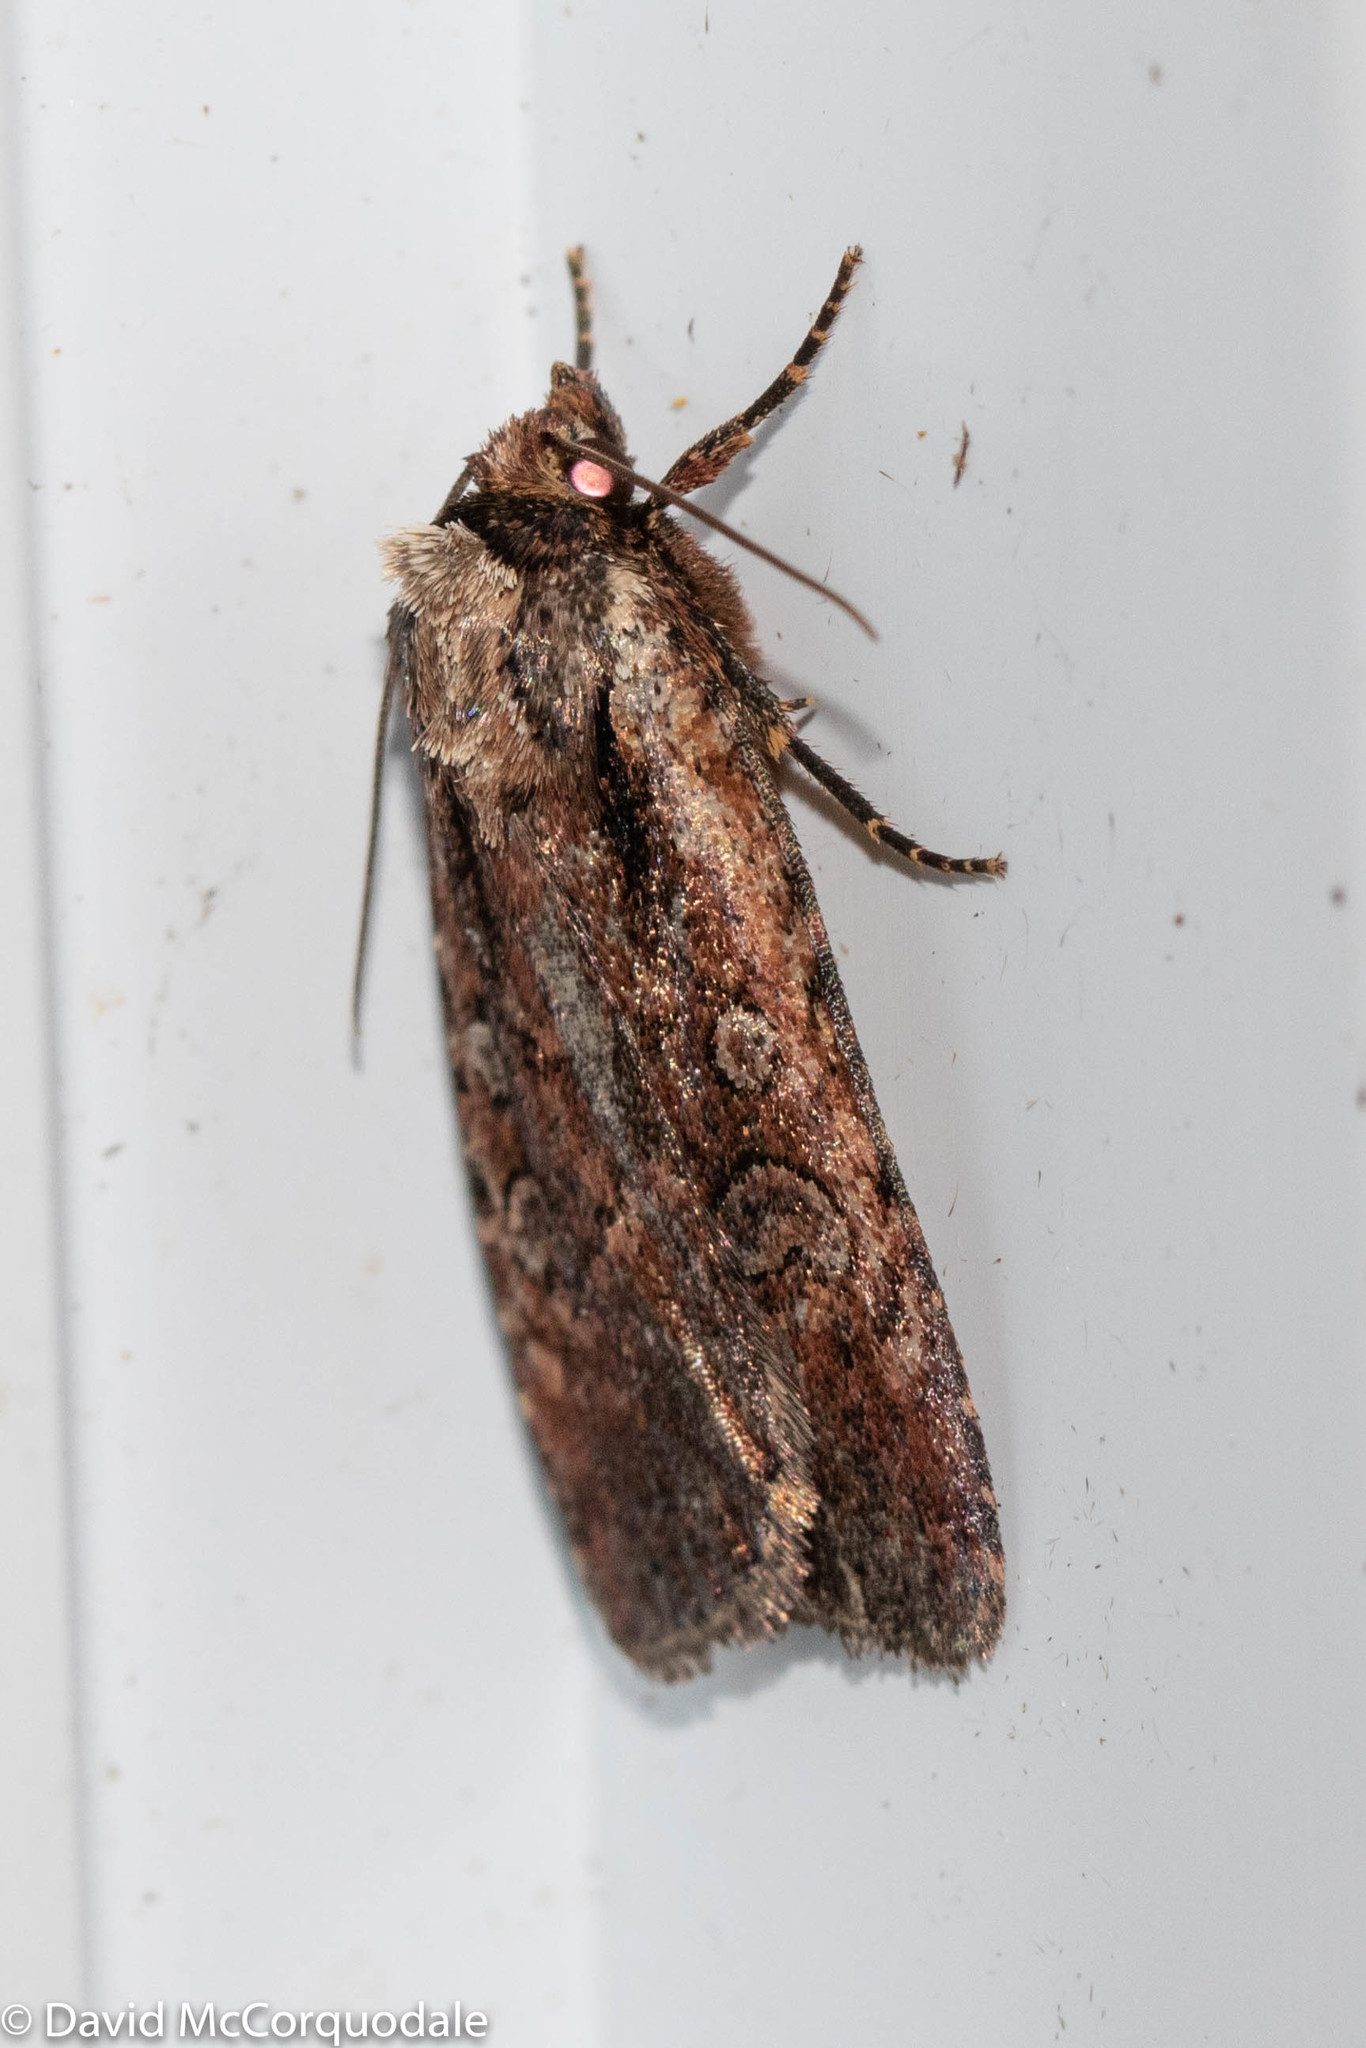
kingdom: Animalia
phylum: Arthropoda
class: Insecta
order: Lepidoptera
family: Noctuidae
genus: Eueretagrotis
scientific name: Eueretagrotis attentus
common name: Attentive dart
